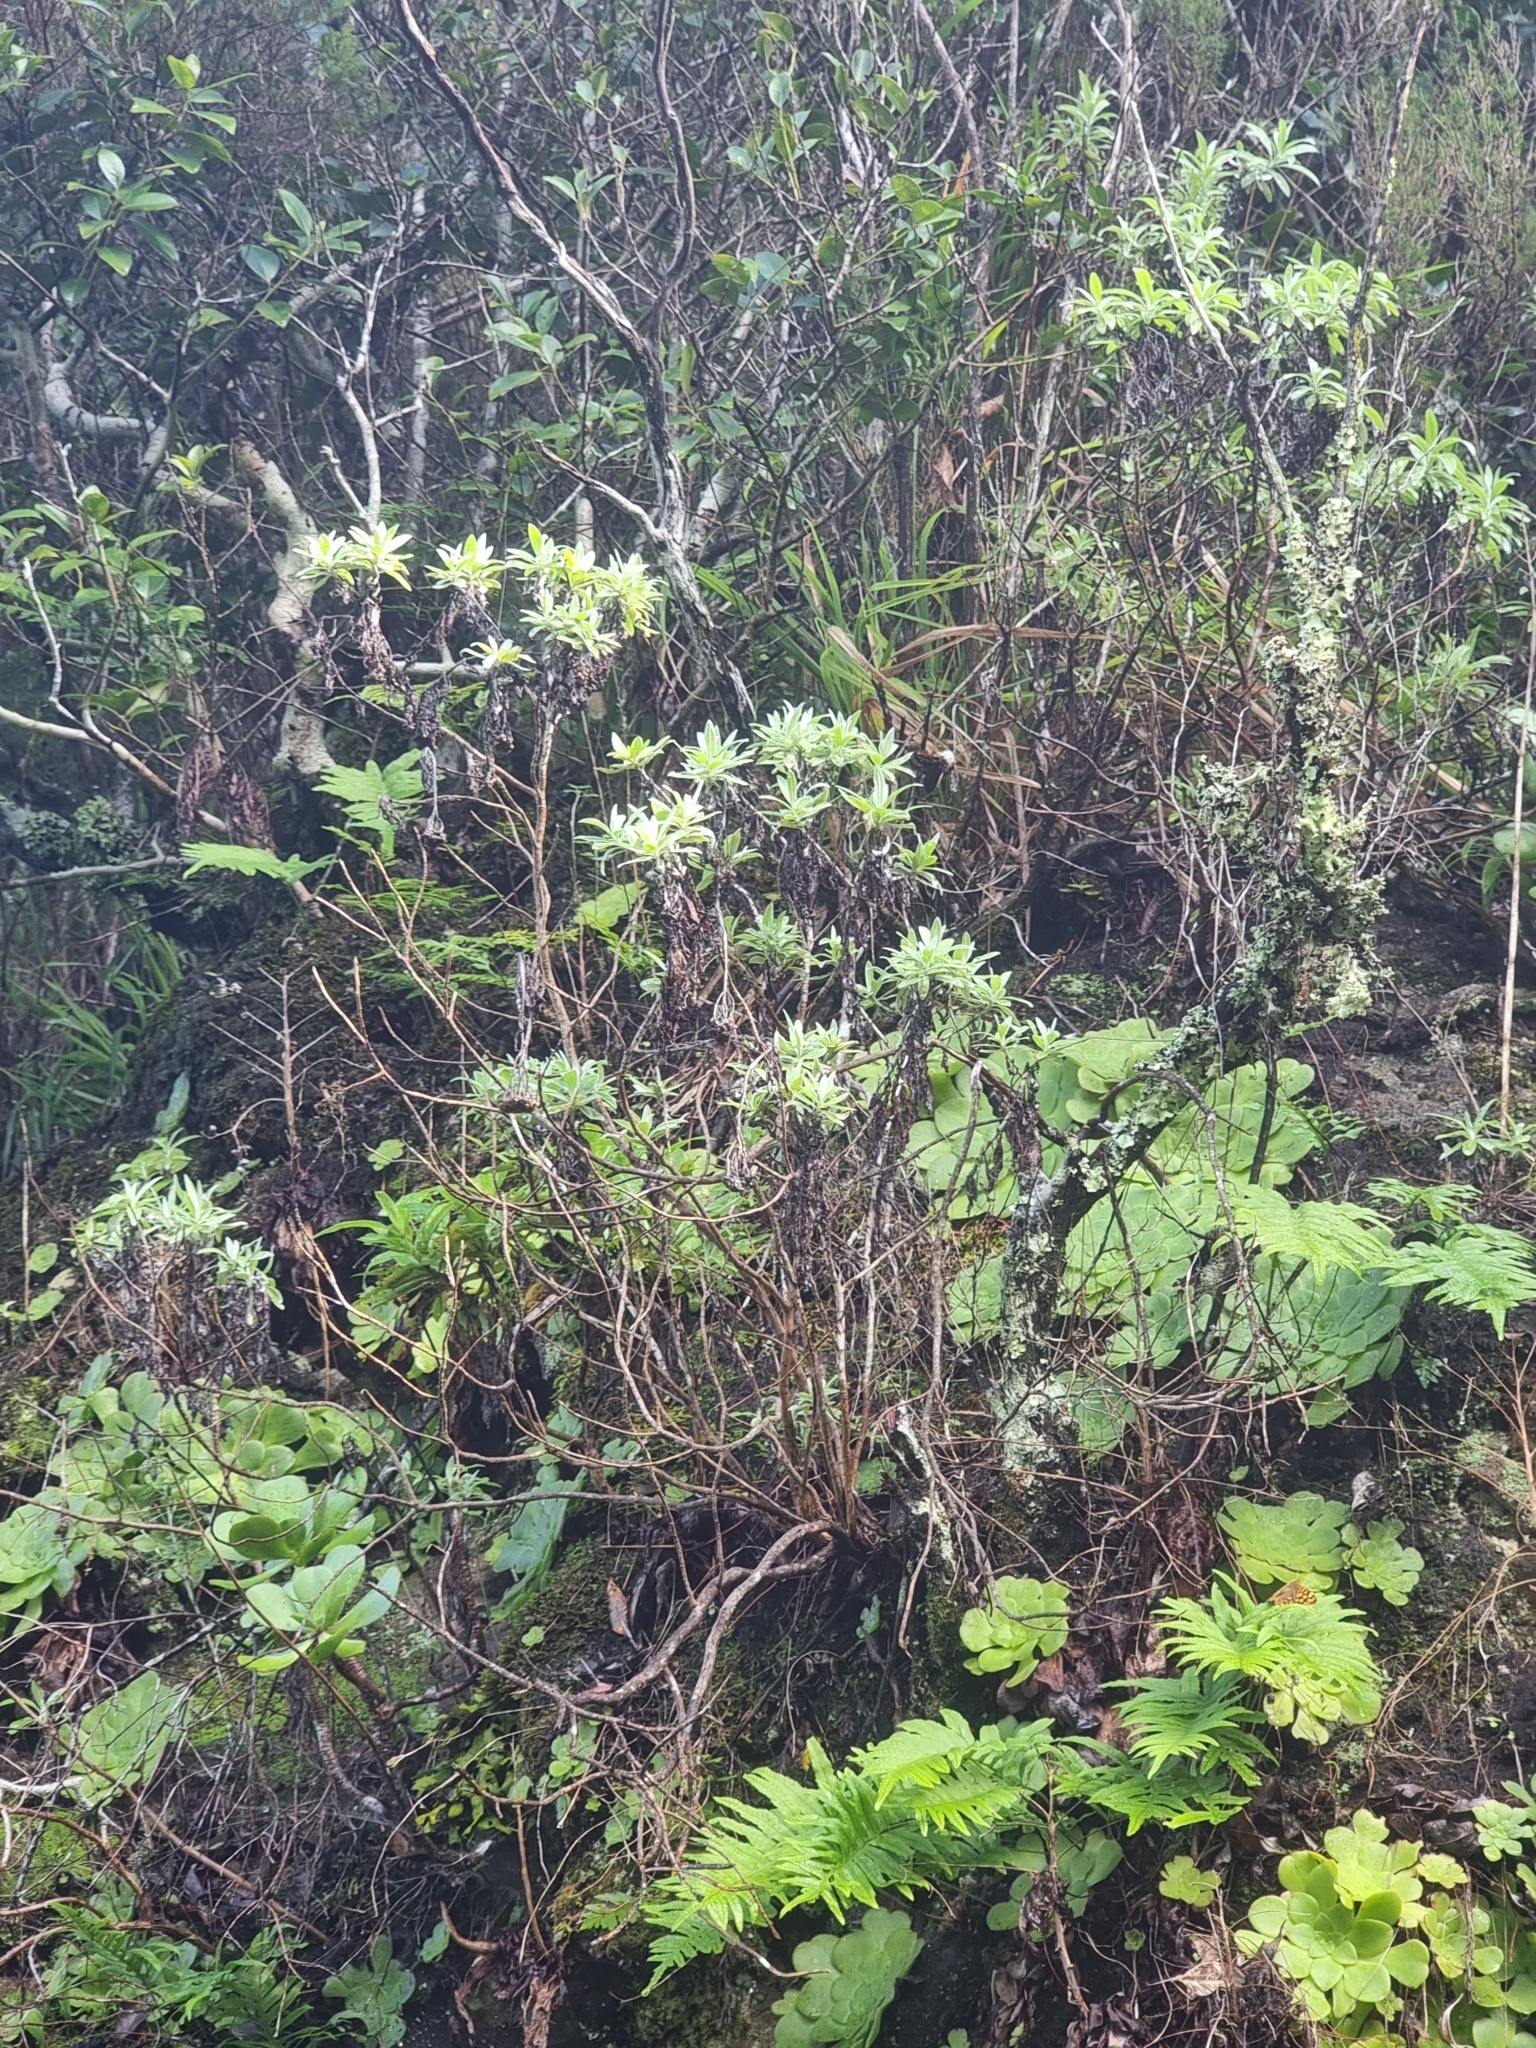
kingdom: Plantae
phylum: Tracheophyta
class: Magnoliopsida
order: Asterales
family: Asteraceae
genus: Helichrysum
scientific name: Helichrysum melaleucum
